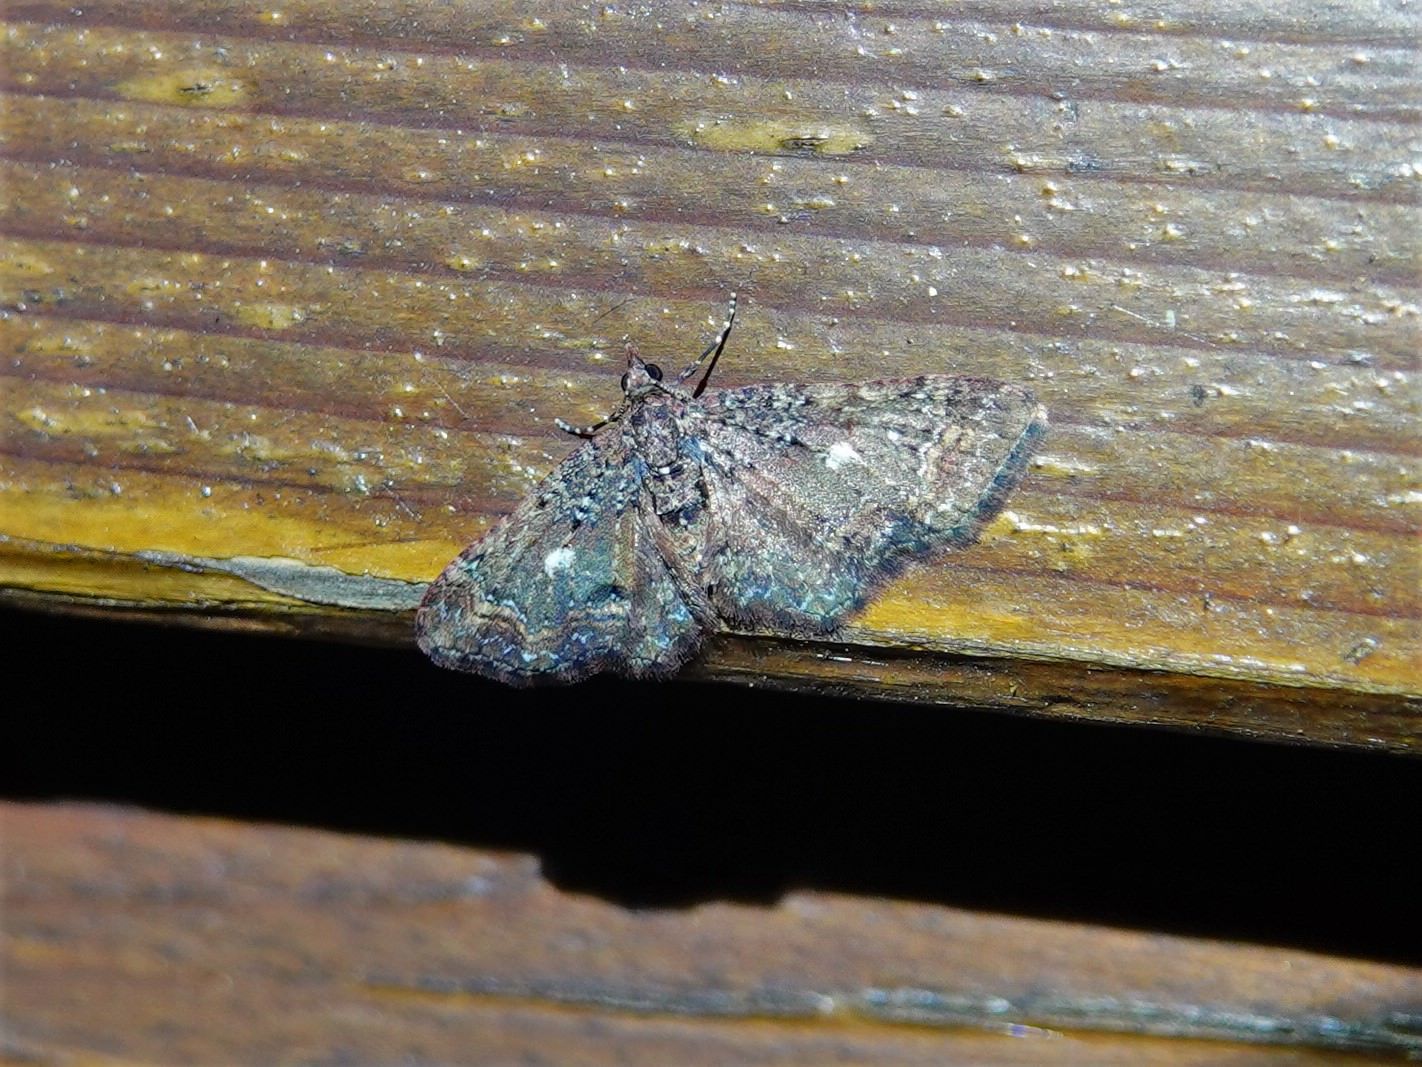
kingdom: Animalia
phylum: Arthropoda
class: Insecta
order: Lepidoptera
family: Geometridae
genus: Pasiphila
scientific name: Pasiphila lunata
